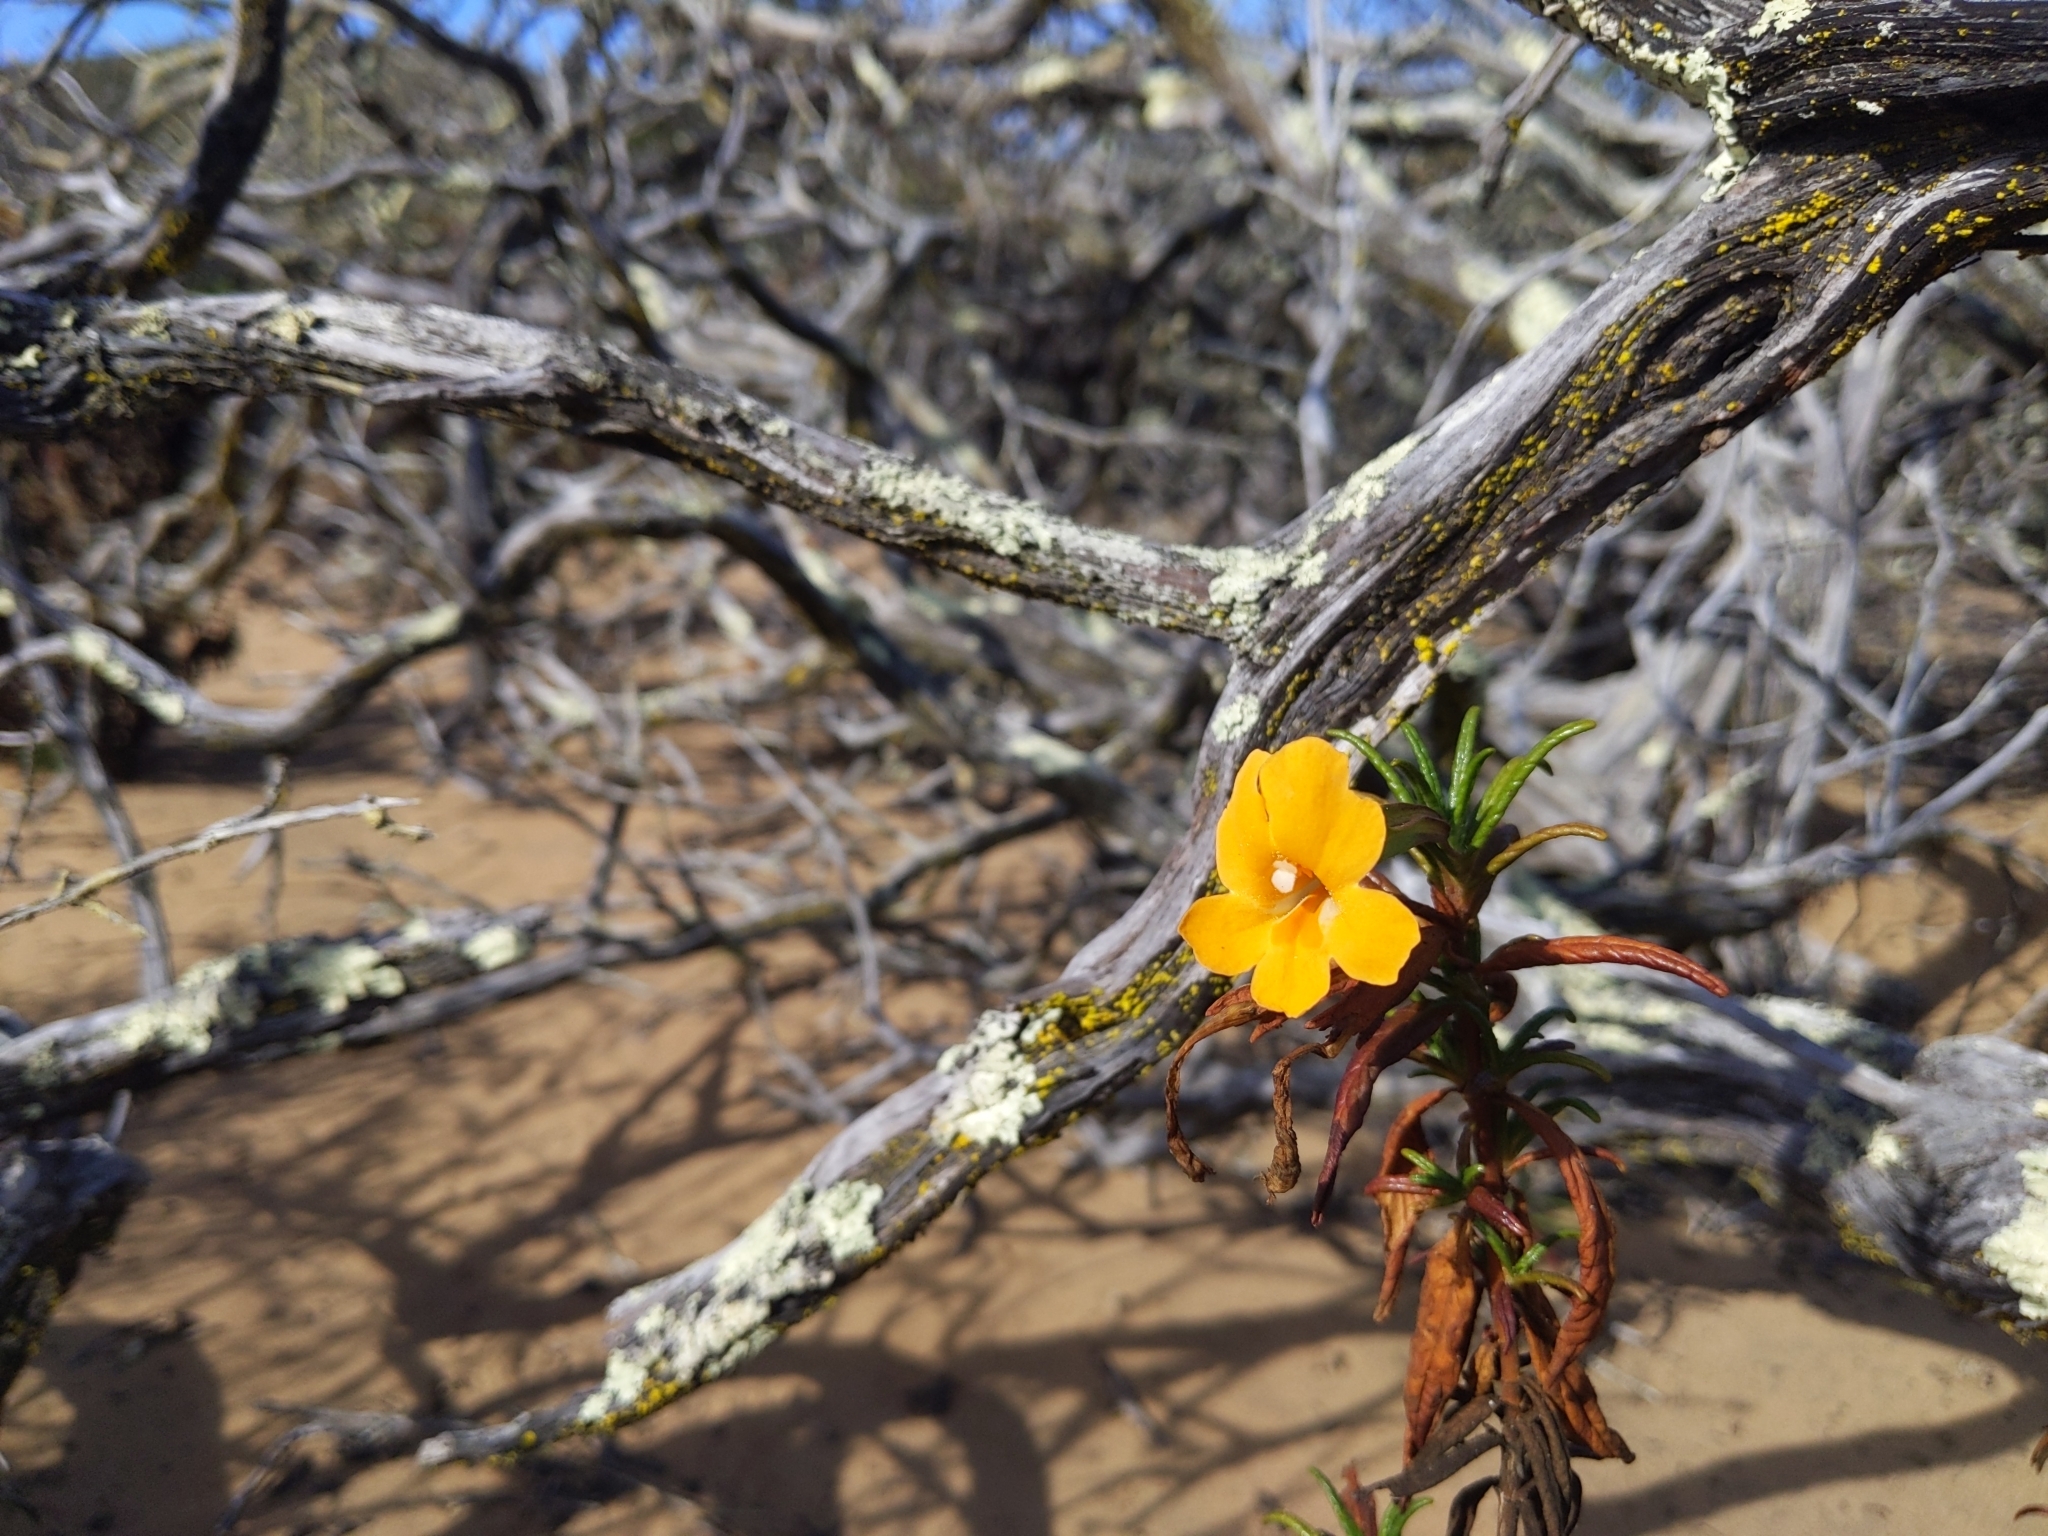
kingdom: Plantae
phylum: Tracheophyta
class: Magnoliopsida
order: Lamiales
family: Phrymaceae
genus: Diplacus
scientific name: Diplacus aurantiacus
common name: Bush monkey-flower
